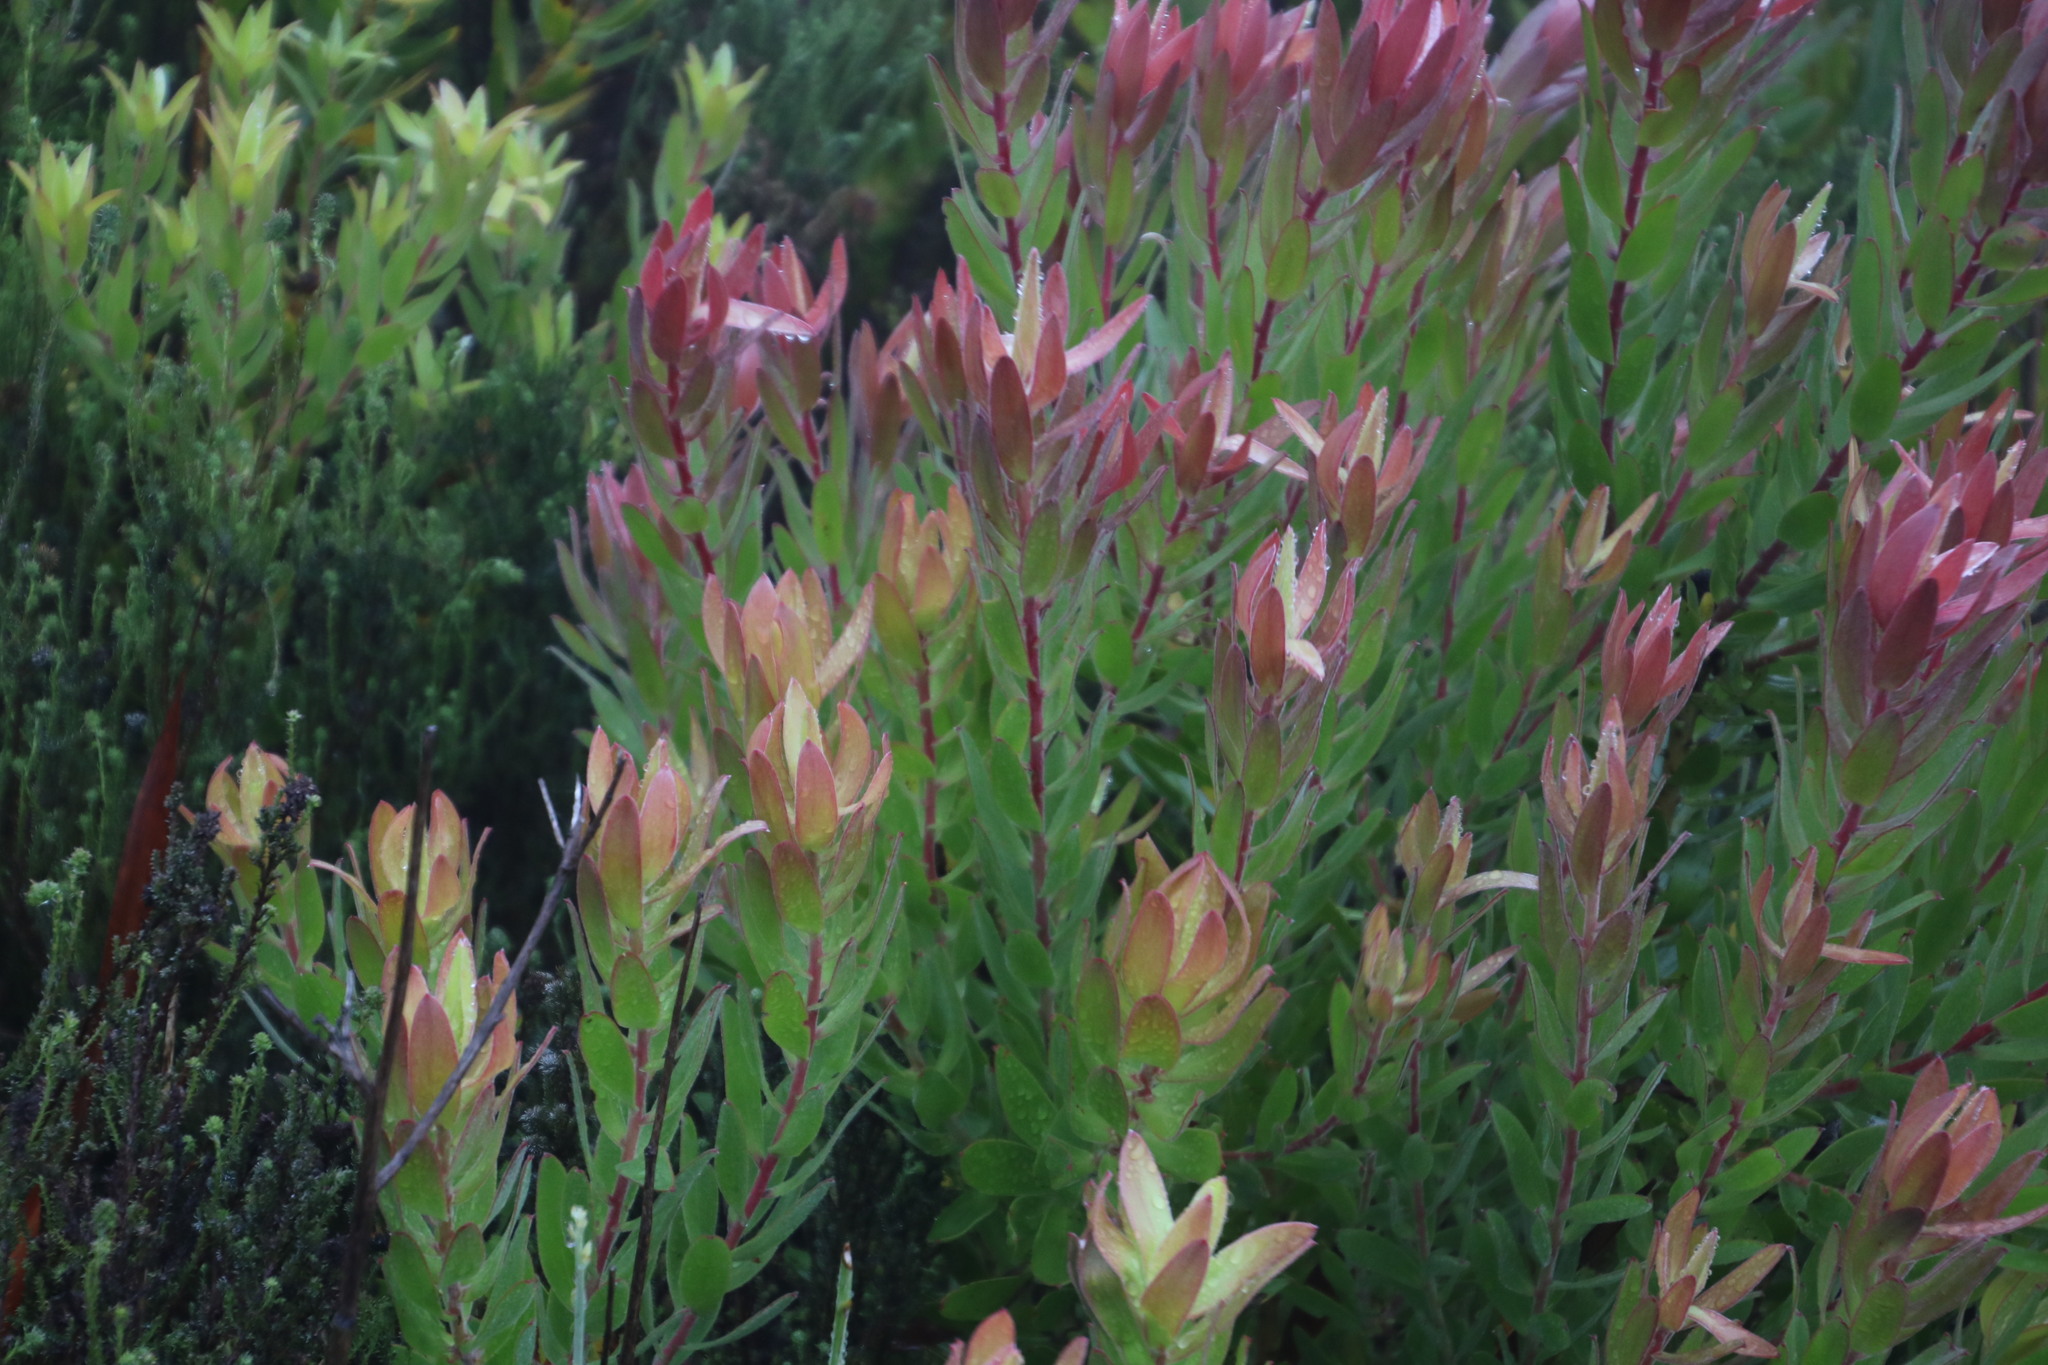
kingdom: Plantae
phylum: Tracheophyta
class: Magnoliopsida
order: Proteales
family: Proteaceae
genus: Leucadendron
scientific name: Leucadendron laureolum
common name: Golden sunshinebush
